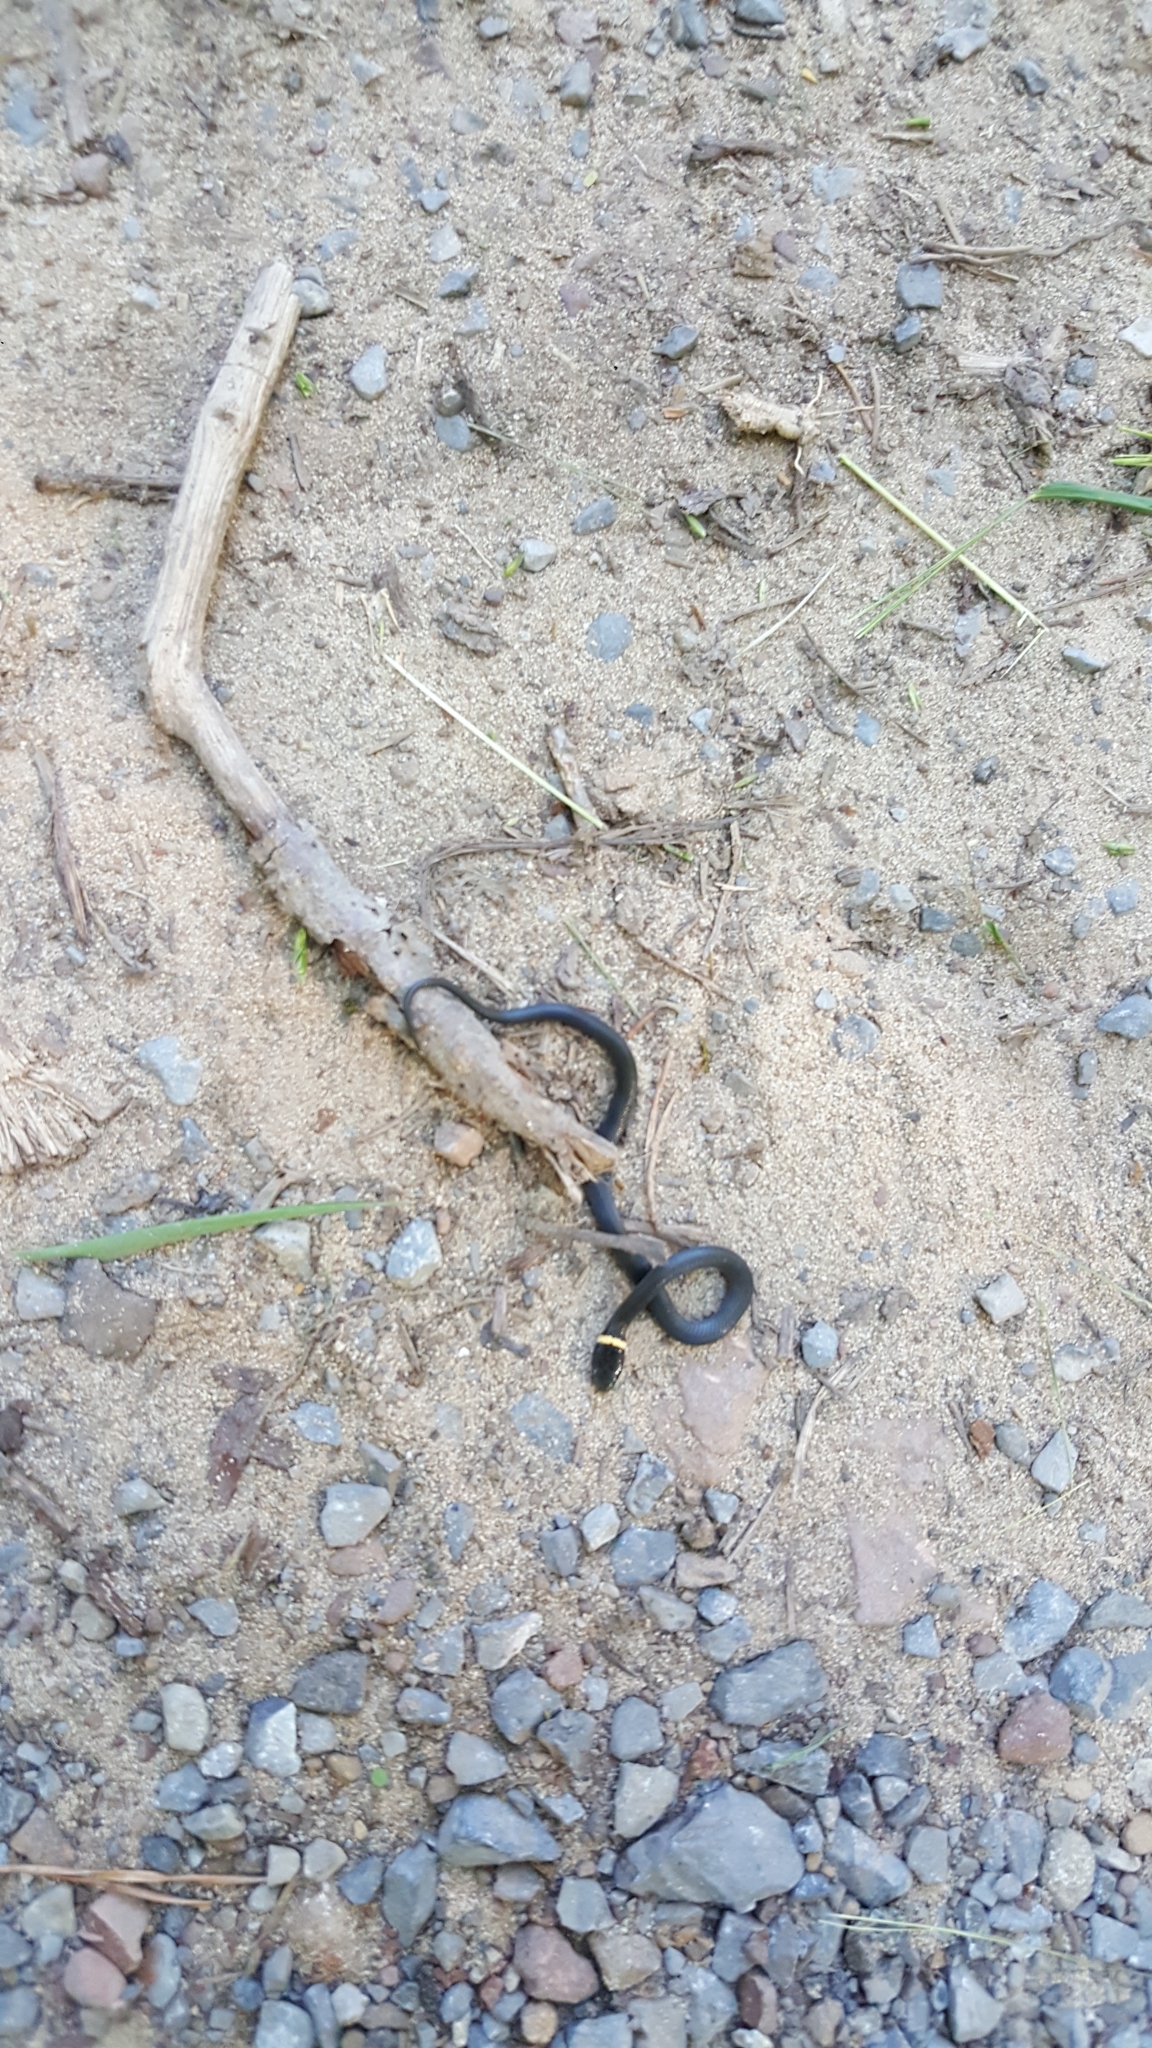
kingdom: Animalia
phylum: Chordata
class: Squamata
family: Colubridae
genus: Diadophis
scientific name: Diadophis punctatus
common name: Ringneck snake
